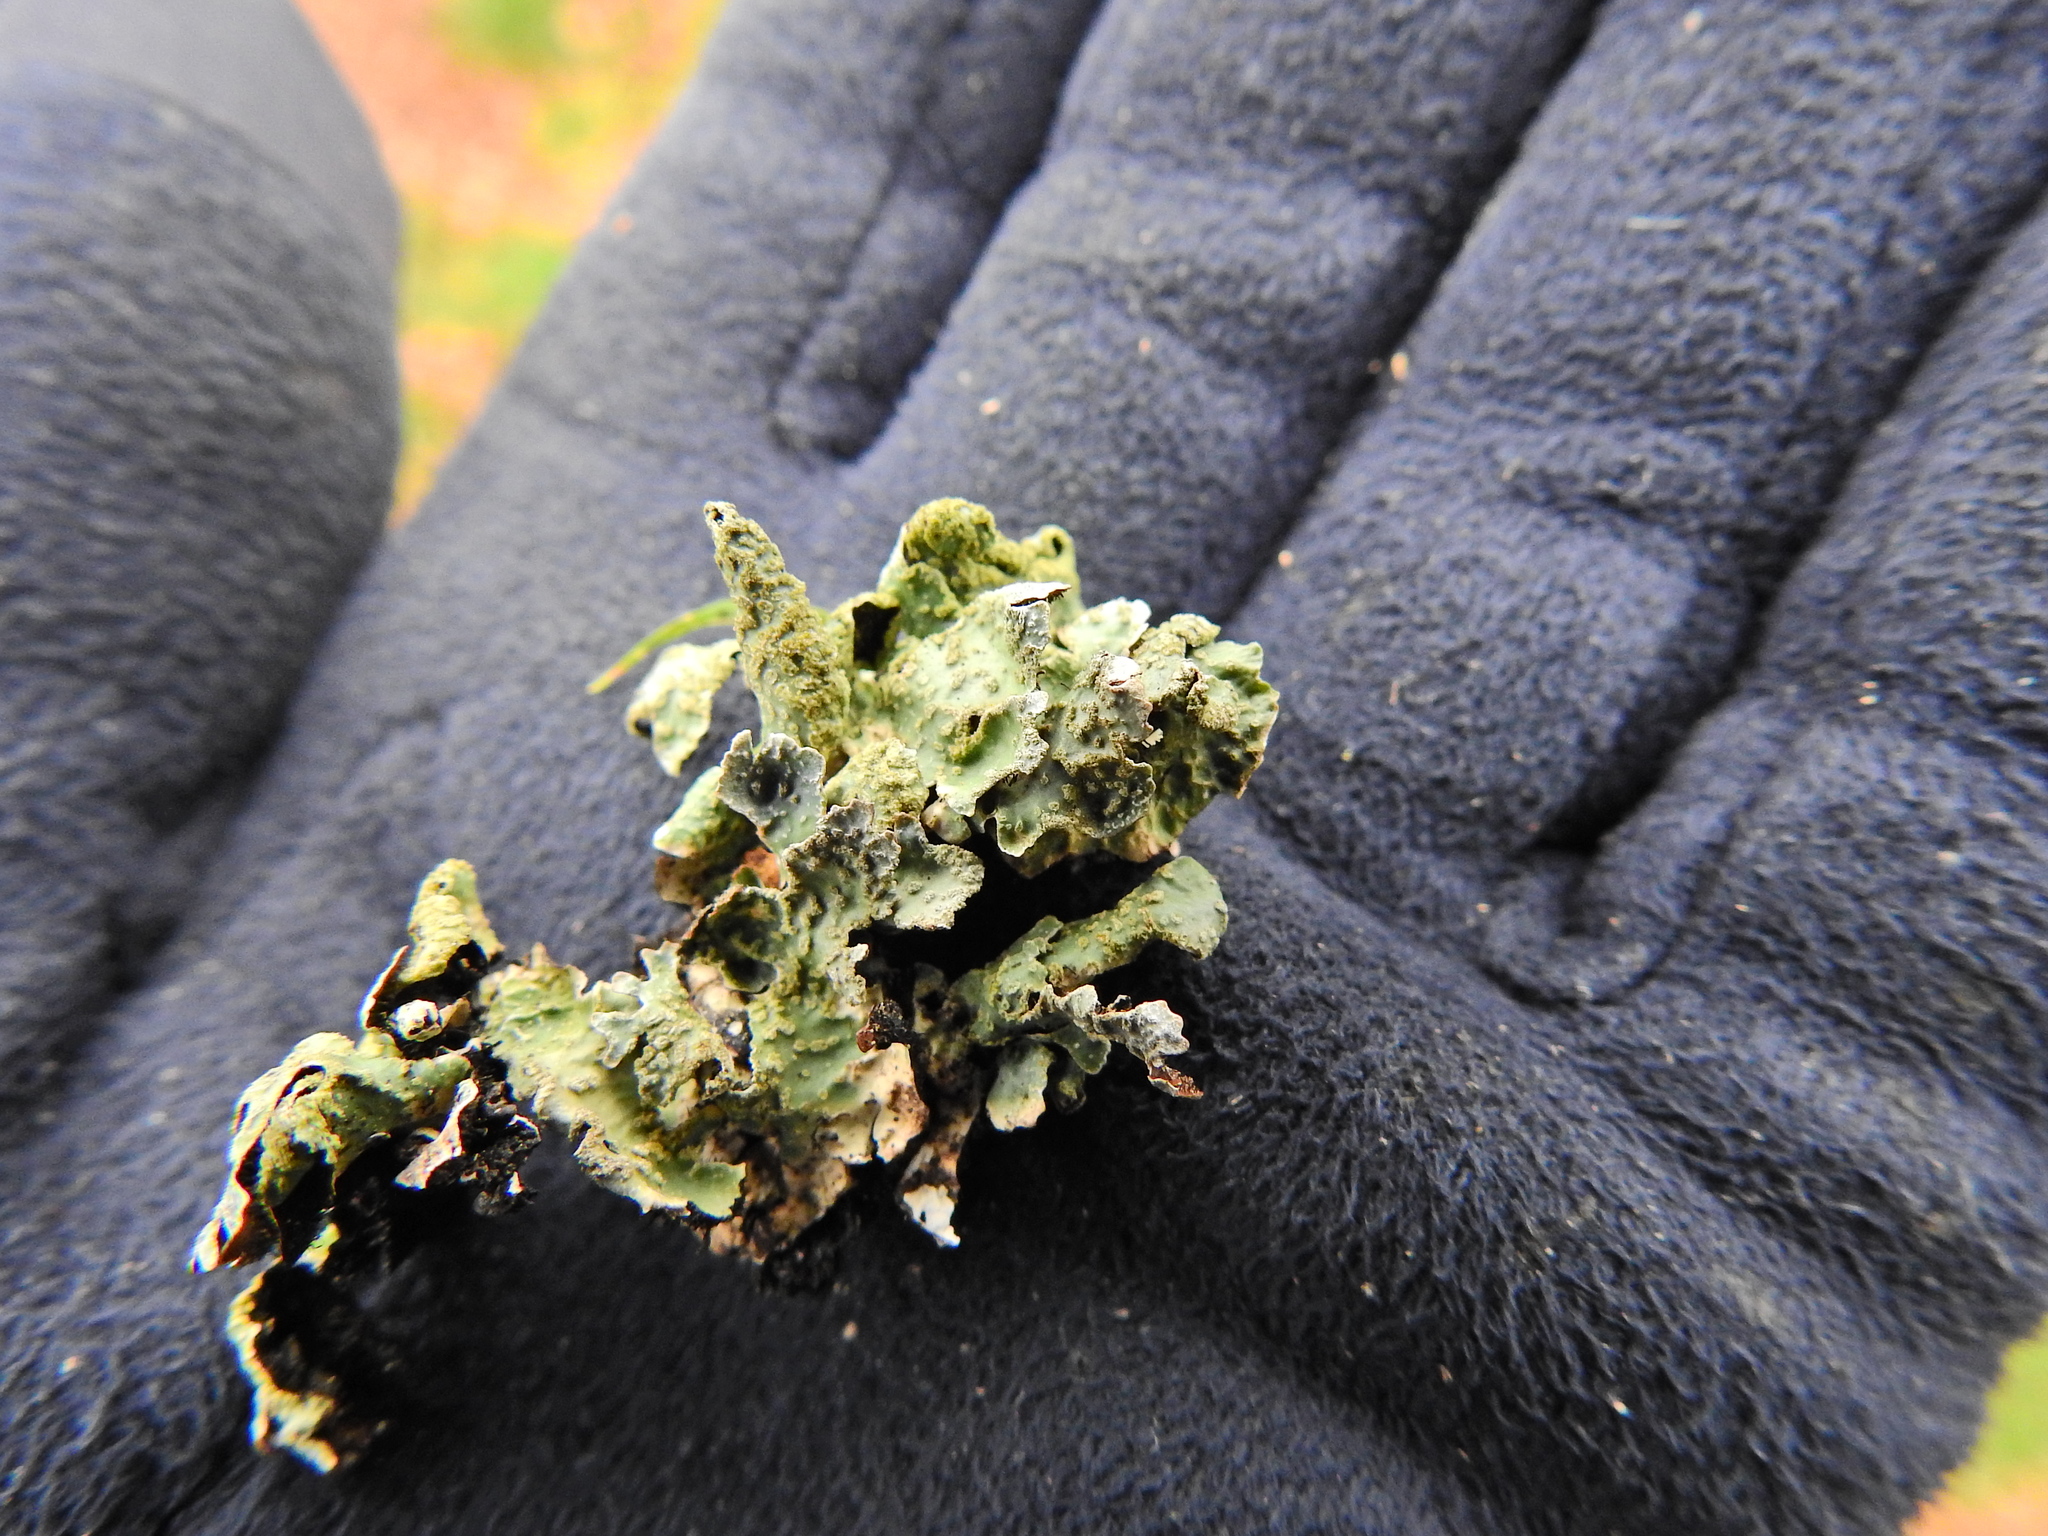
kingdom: Fungi
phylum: Ascomycota
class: Lecanoromycetes
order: Lecanorales
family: Parmeliaceae
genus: Parmelia
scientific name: Parmelia sulcata
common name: Netted shield lichen
